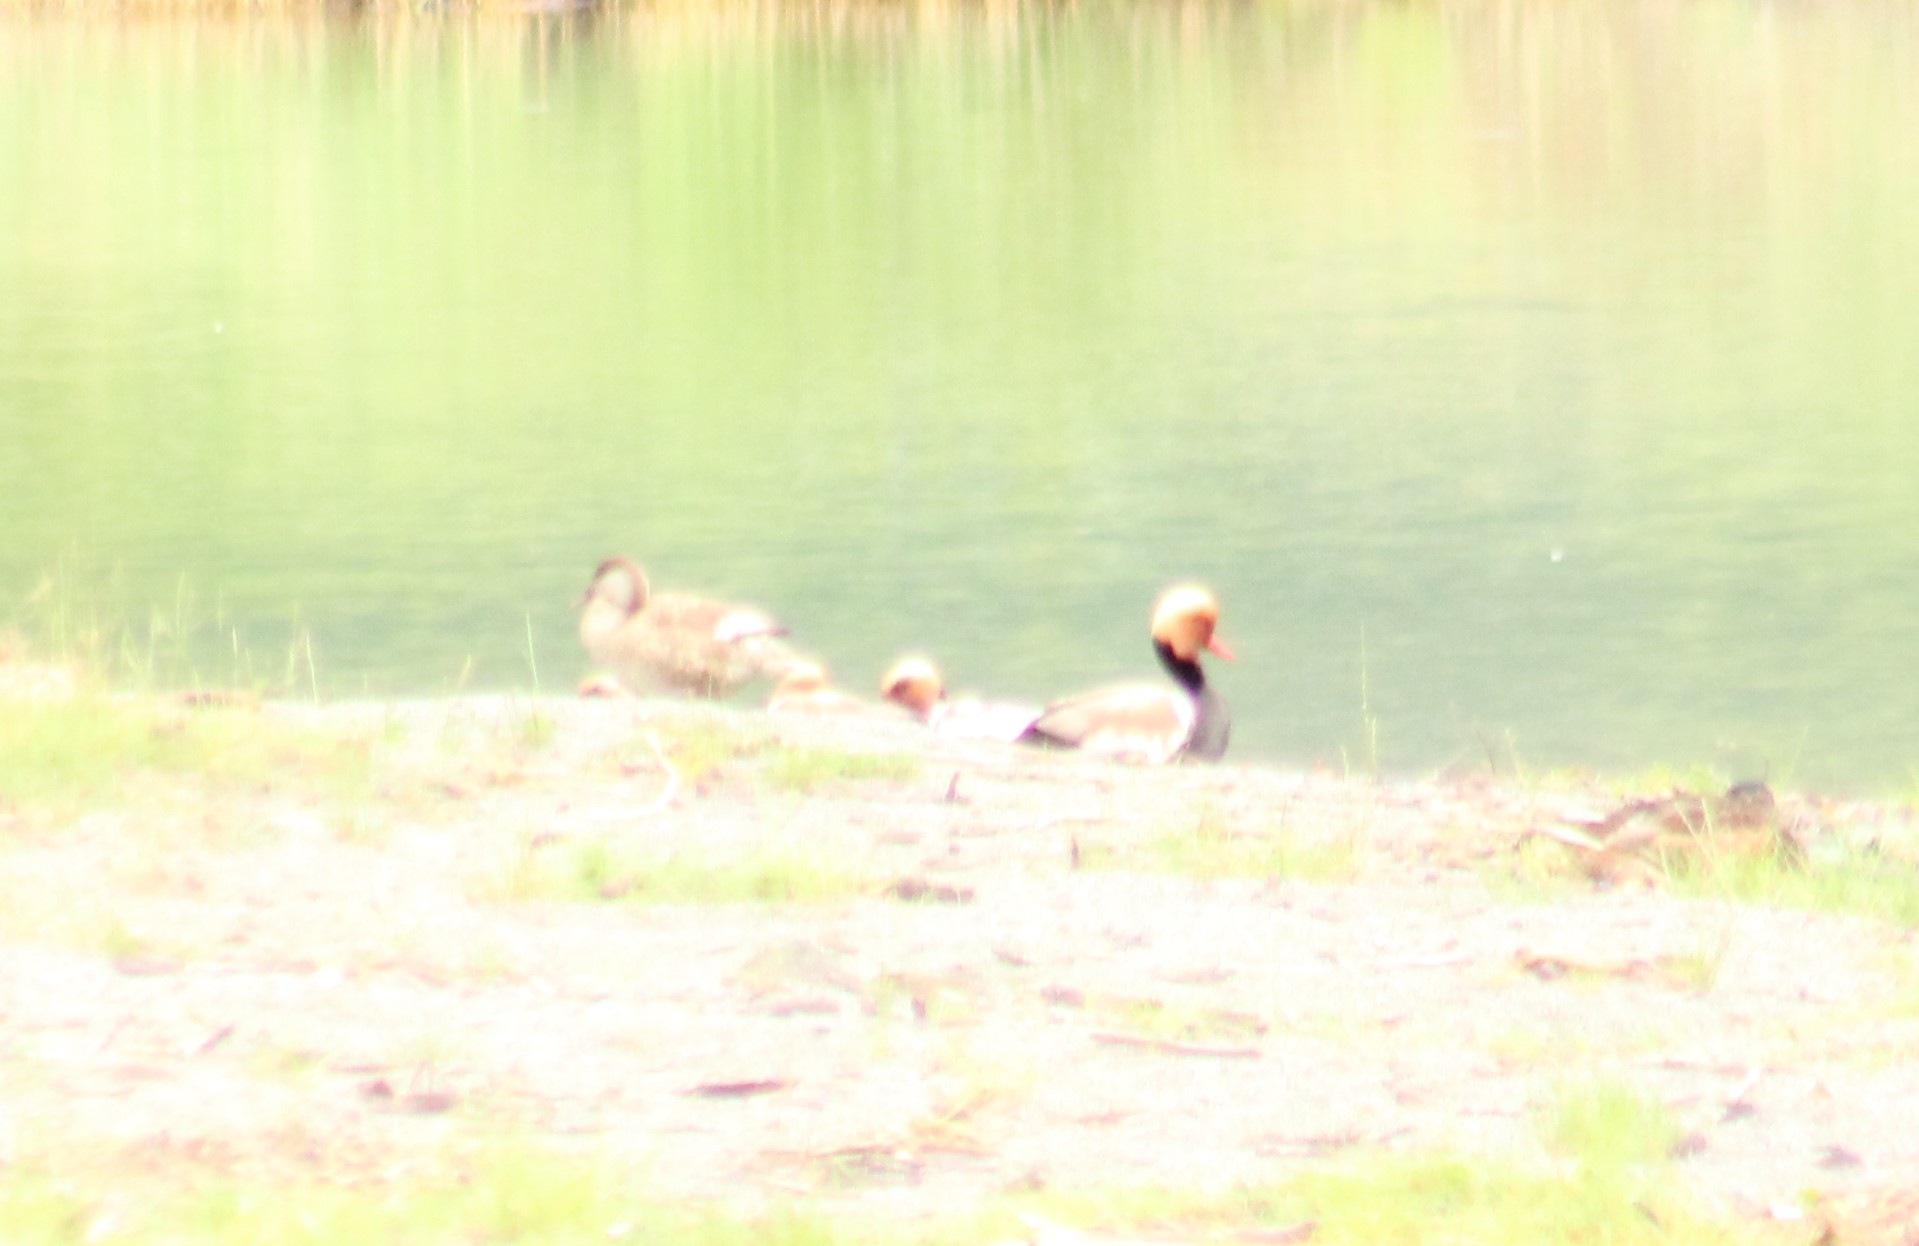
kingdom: Animalia
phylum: Chordata
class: Aves
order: Anseriformes
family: Anatidae
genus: Netta
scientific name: Netta rufina
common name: Red-crested pochard
